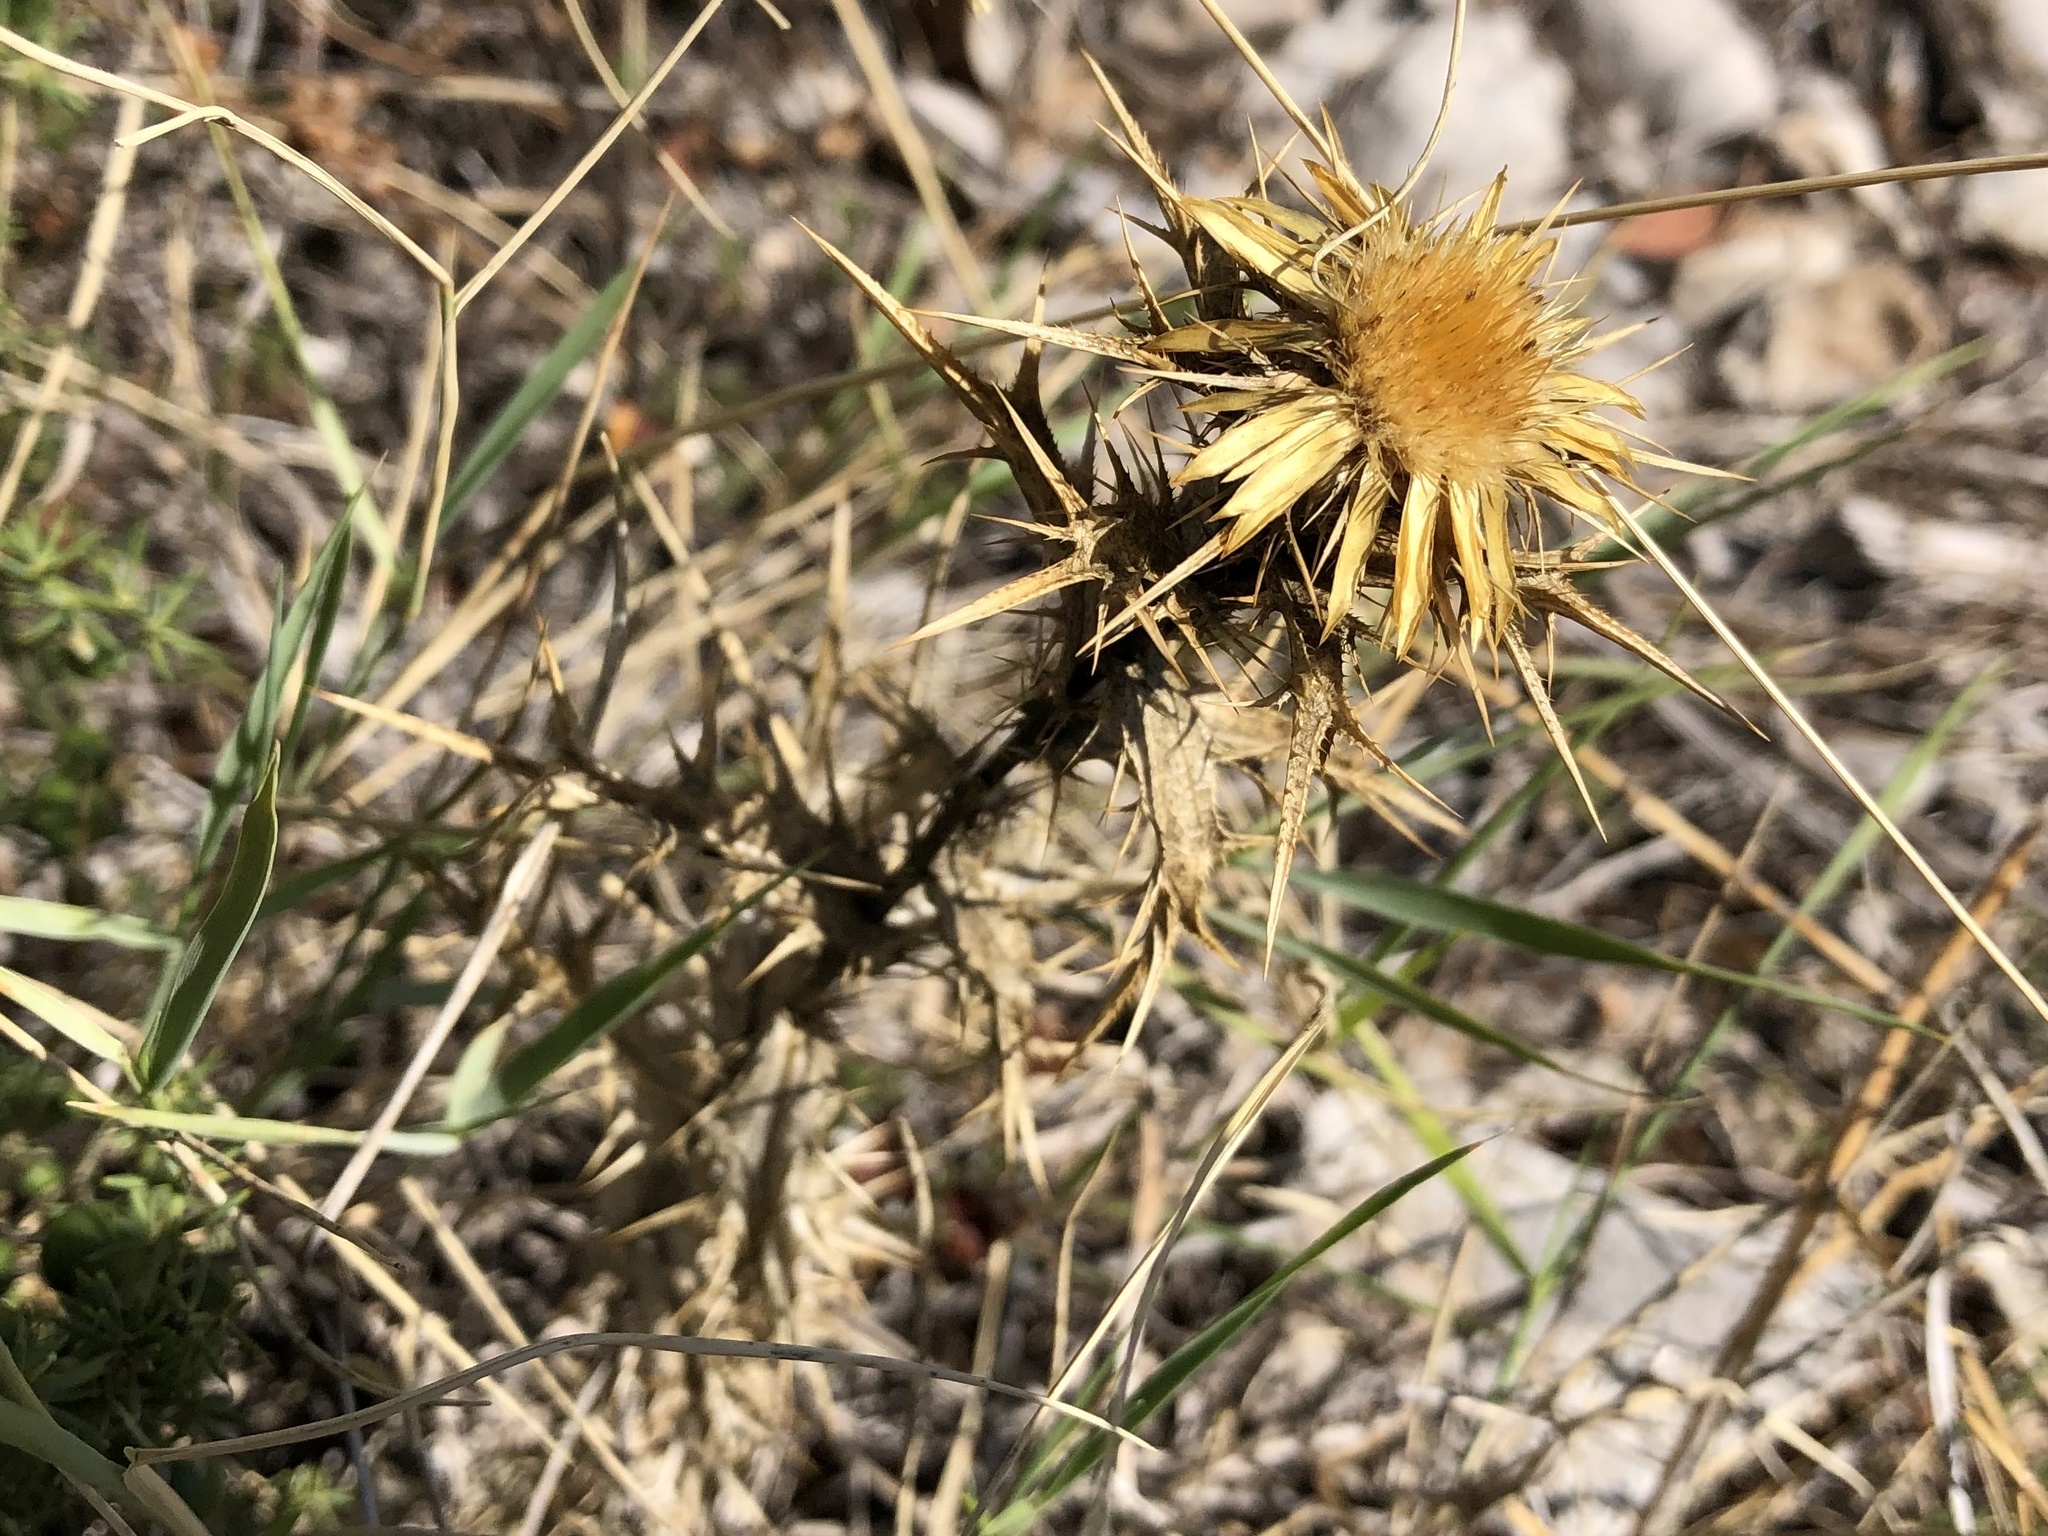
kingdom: Plantae
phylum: Tracheophyta
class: Magnoliopsida
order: Asterales
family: Asteraceae
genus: Carlina
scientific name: Carlina corymbosa
